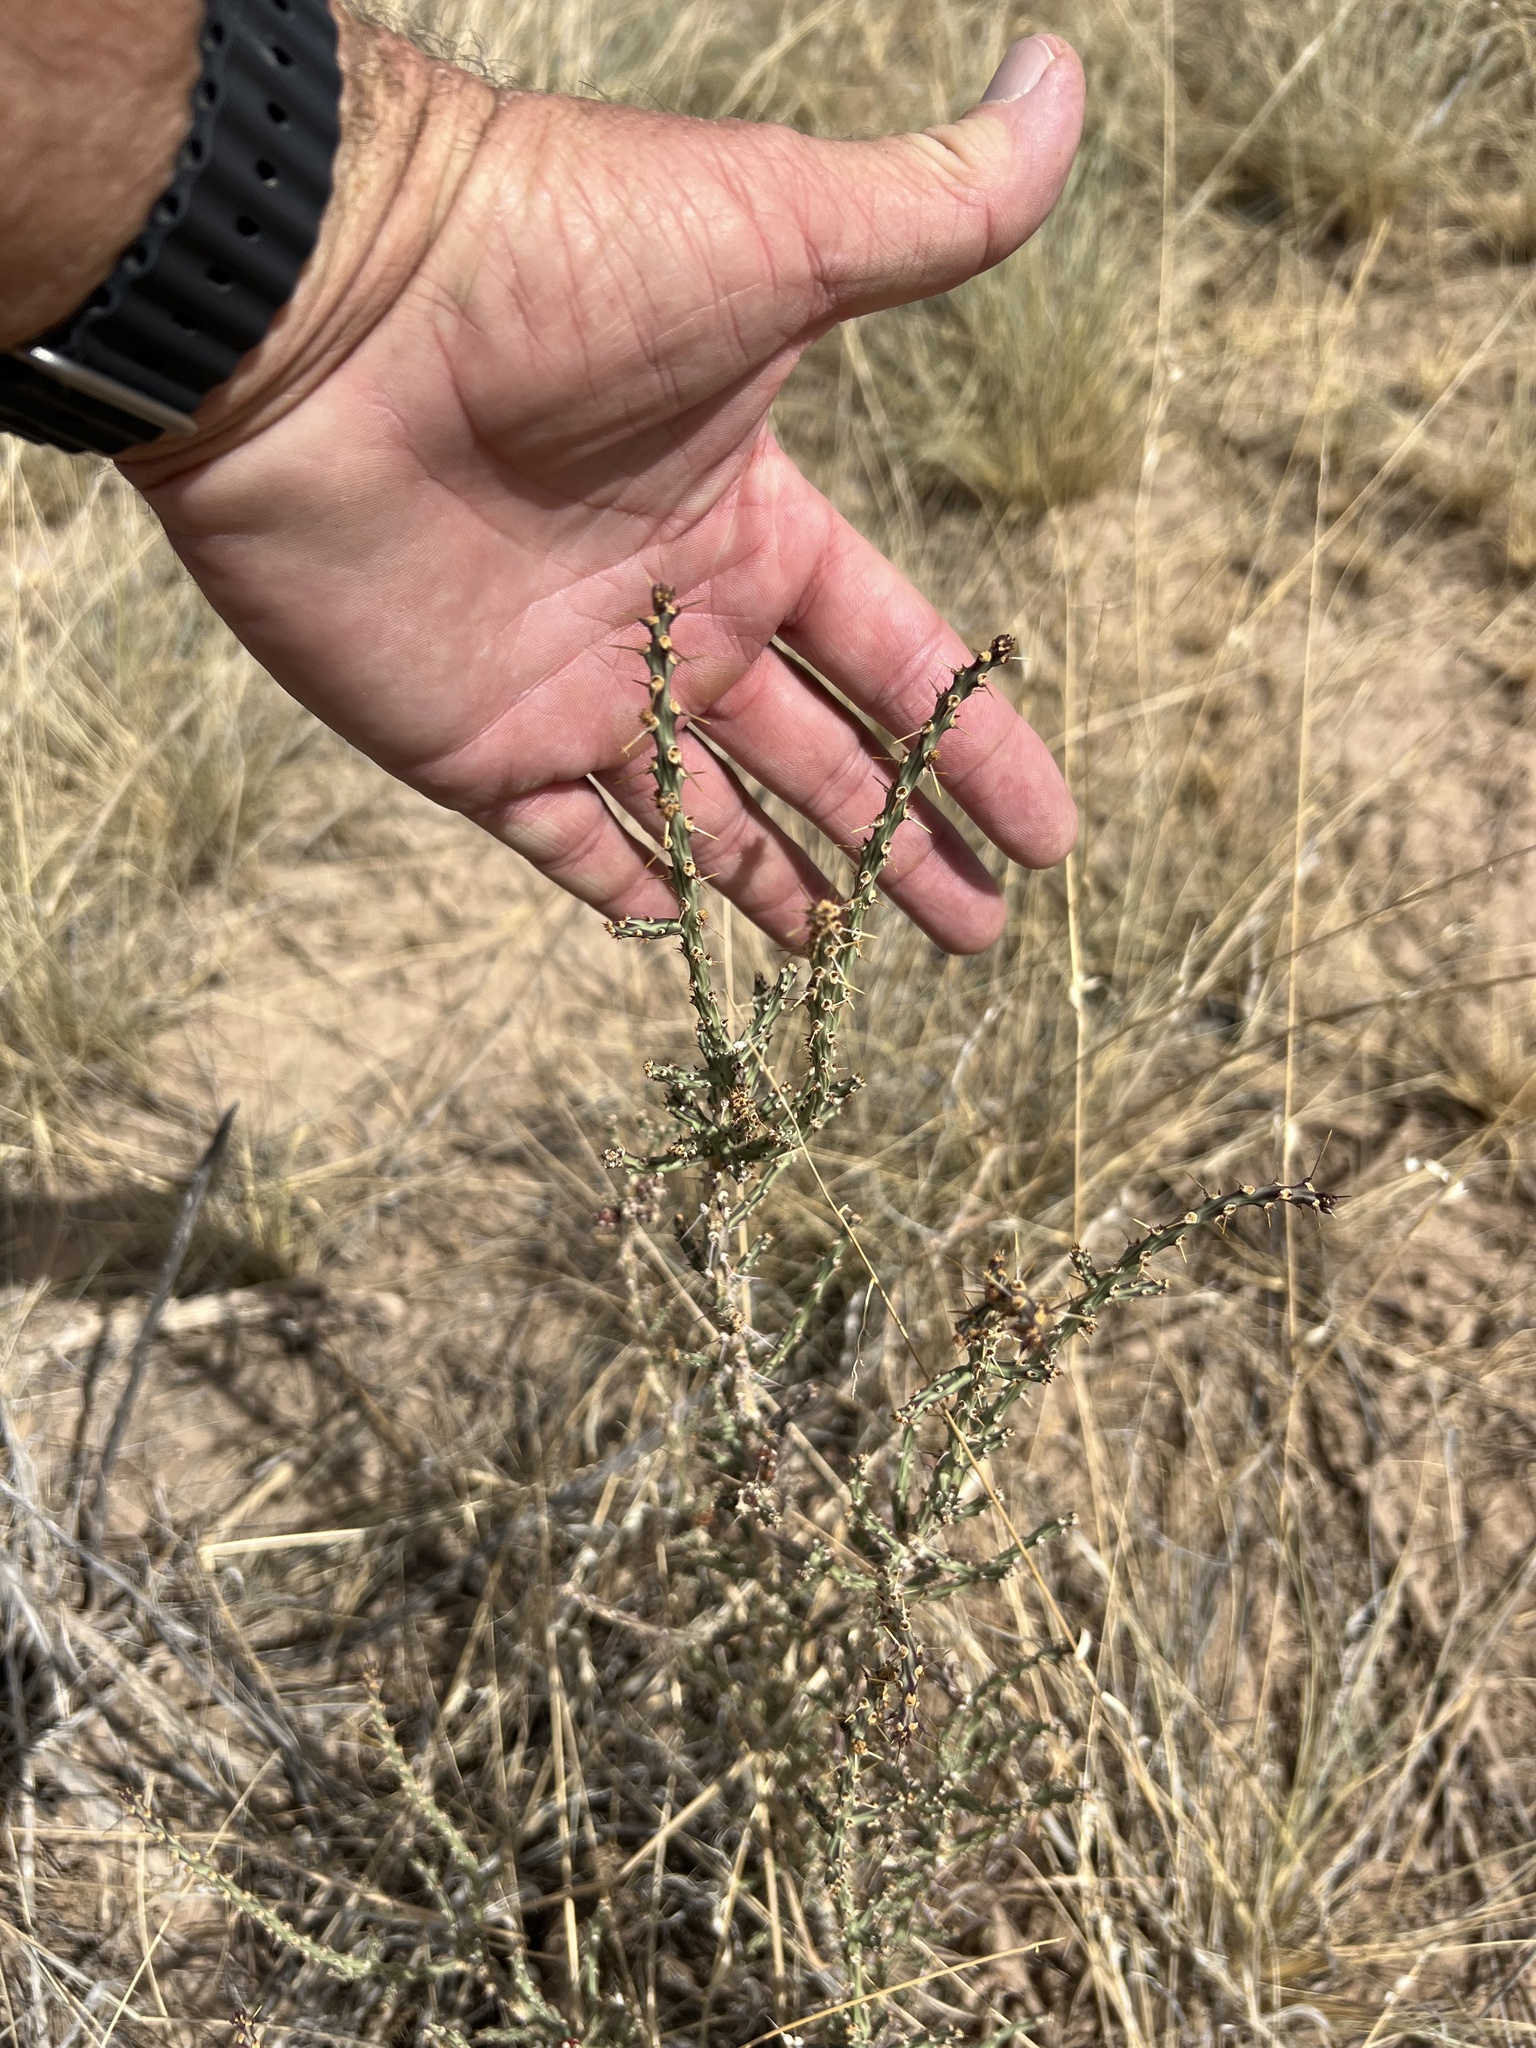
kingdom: Plantae
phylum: Tracheophyta
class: Magnoliopsida
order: Caryophyllales
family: Cactaceae
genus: Cylindropuntia
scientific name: Cylindropuntia leptocaulis
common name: Christmas cactus
